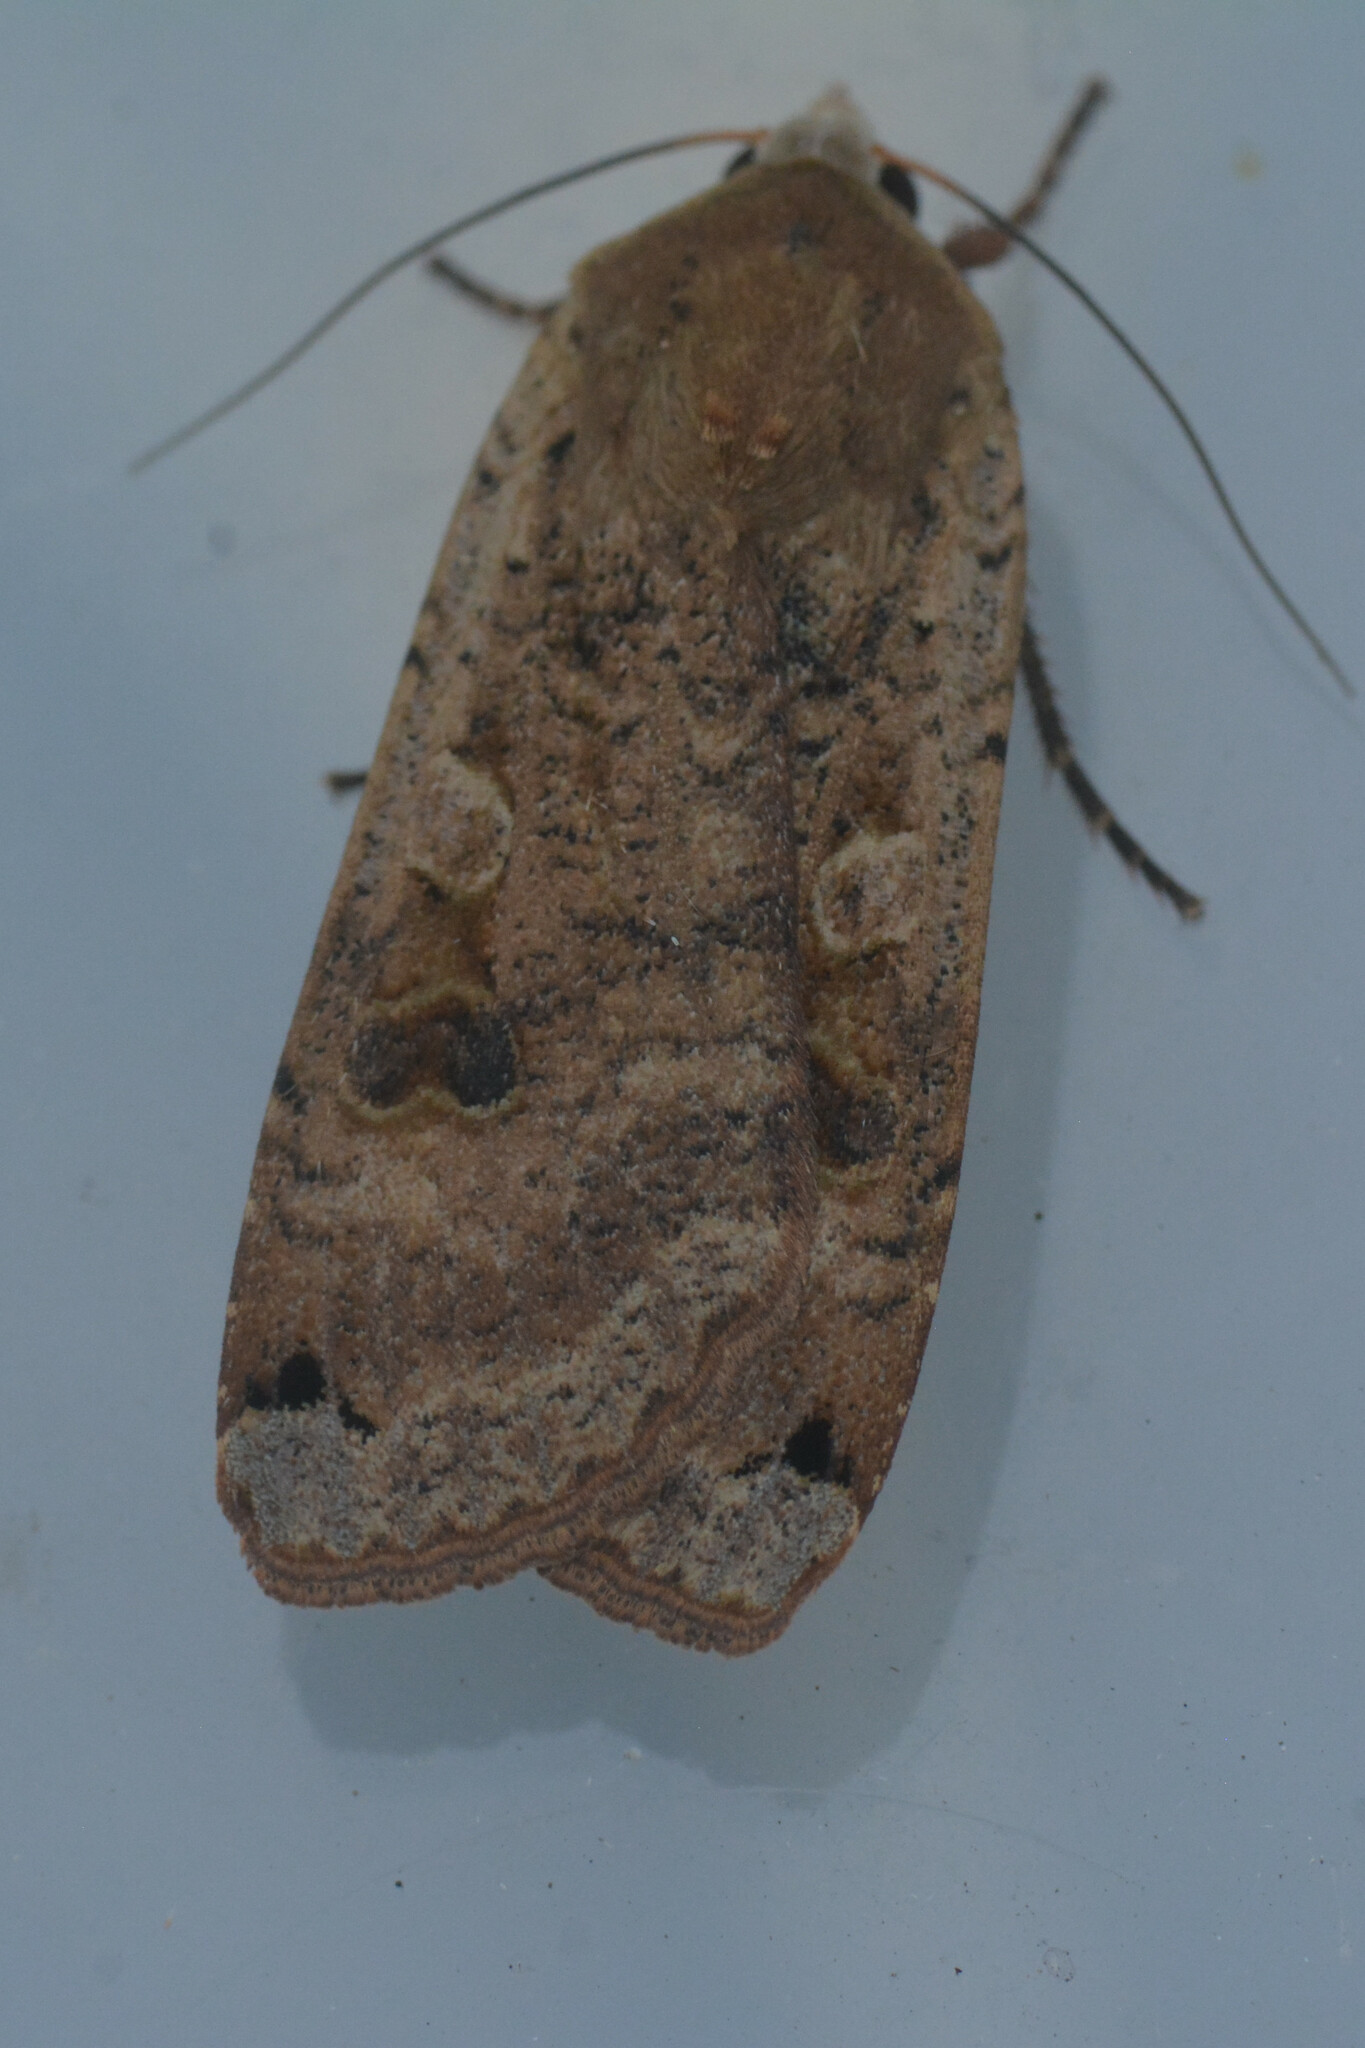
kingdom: Animalia
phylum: Arthropoda
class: Insecta
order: Lepidoptera
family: Noctuidae
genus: Noctua
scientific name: Noctua pronuba
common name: Large yellow underwing
